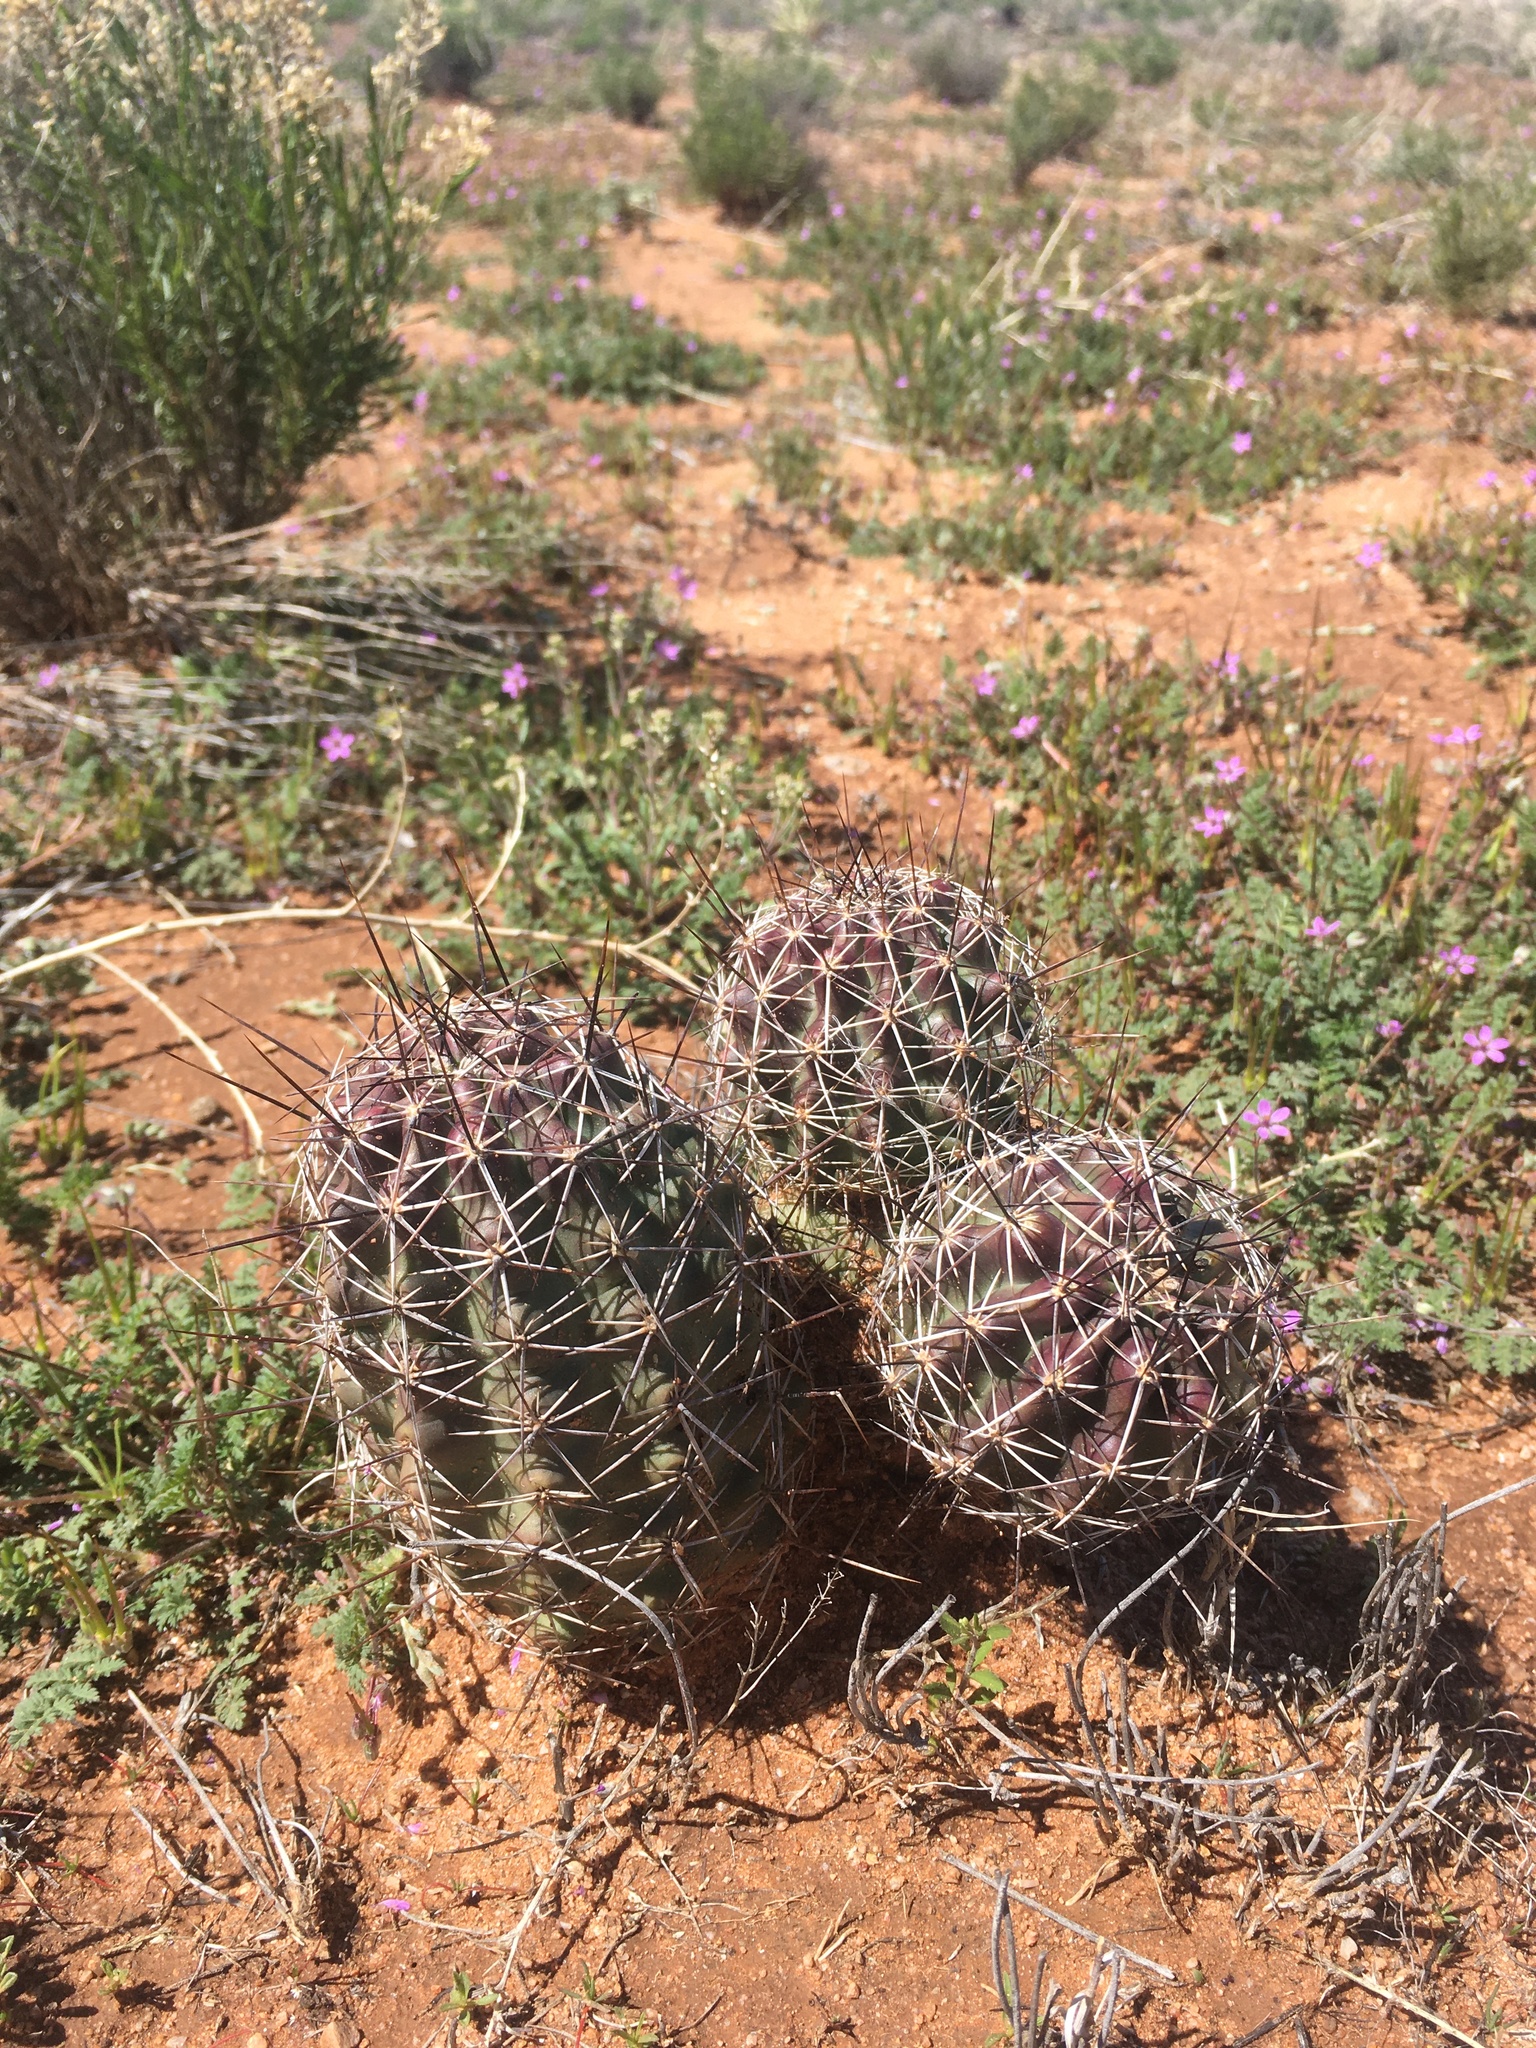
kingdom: Plantae
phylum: Tracheophyta
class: Magnoliopsida
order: Caryophyllales
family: Cactaceae
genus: Echinocereus
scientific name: Echinocereus fendleri
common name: Fendler's hedgehog cactus
